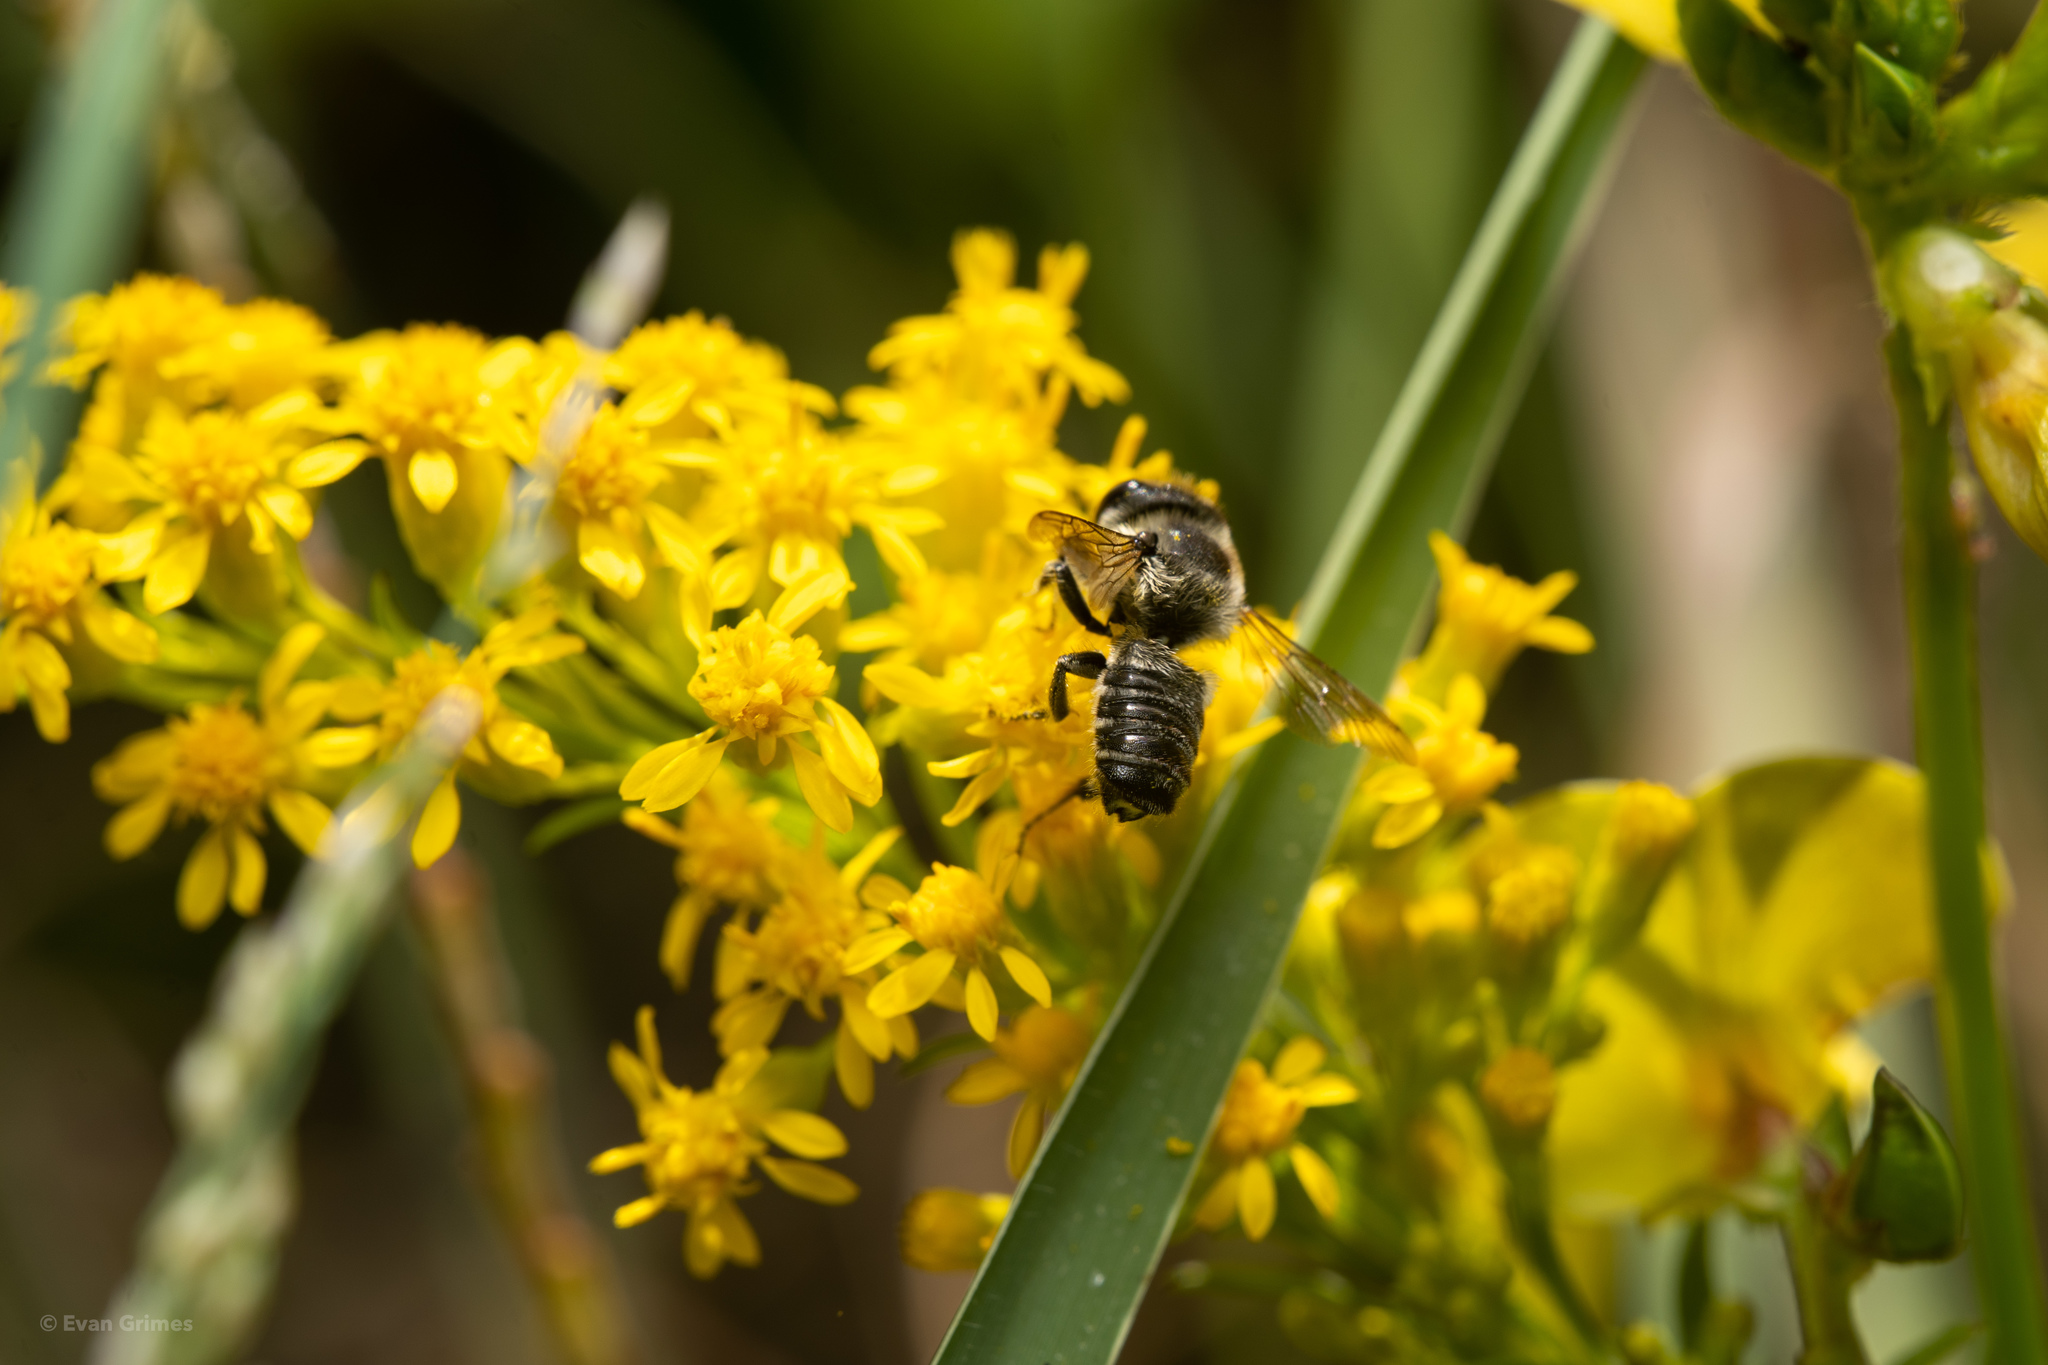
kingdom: Animalia
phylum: Arthropoda
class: Insecta
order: Hymenoptera
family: Megachilidae
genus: Megachile
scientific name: Megachile mendica
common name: Flat-tailed leafcutter
